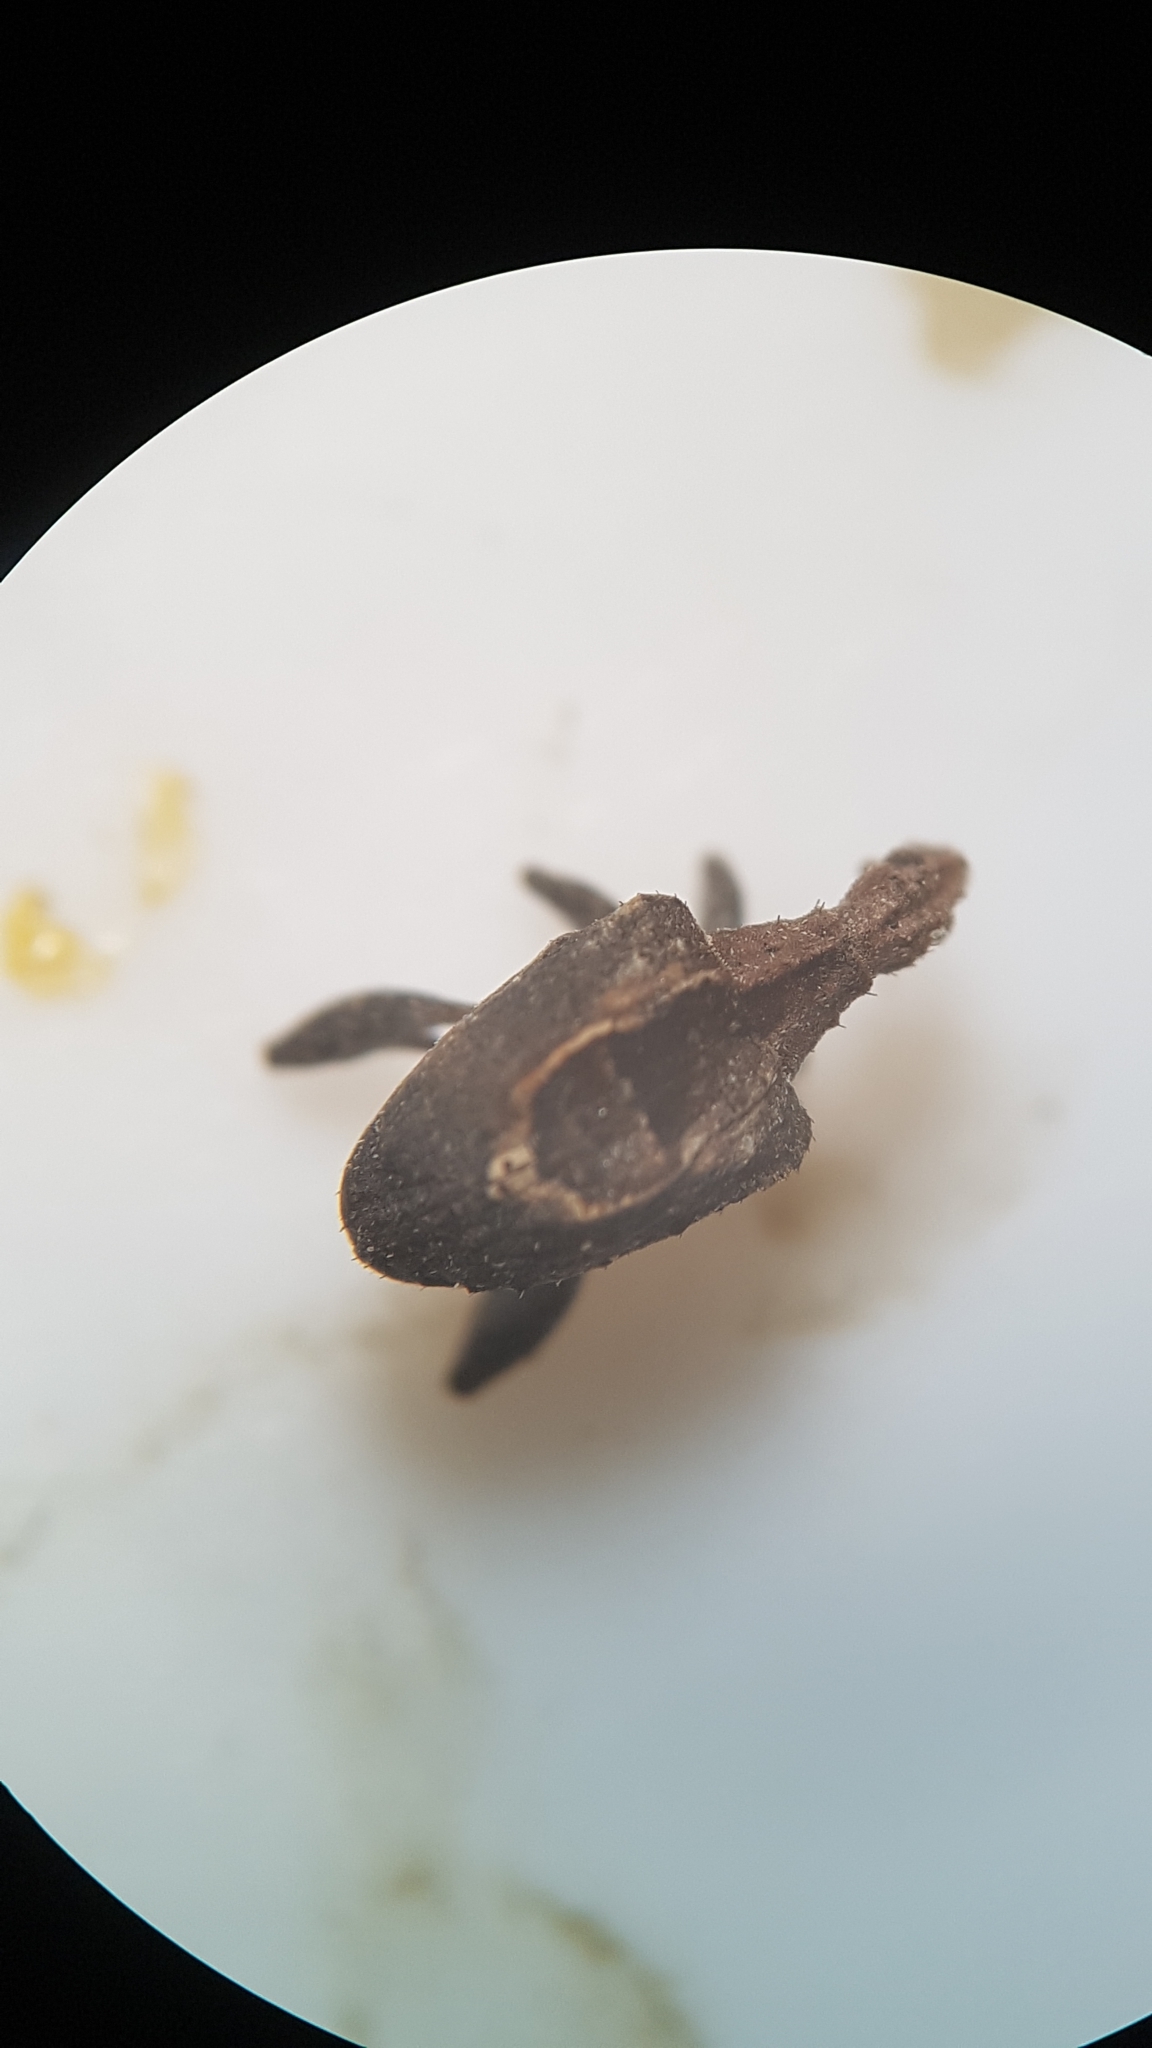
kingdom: Animalia
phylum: Arthropoda
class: Insecta
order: Coleoptera
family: Curculionidae
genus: Stephanorrhynchus
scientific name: Stephanorrhynchus crassus
